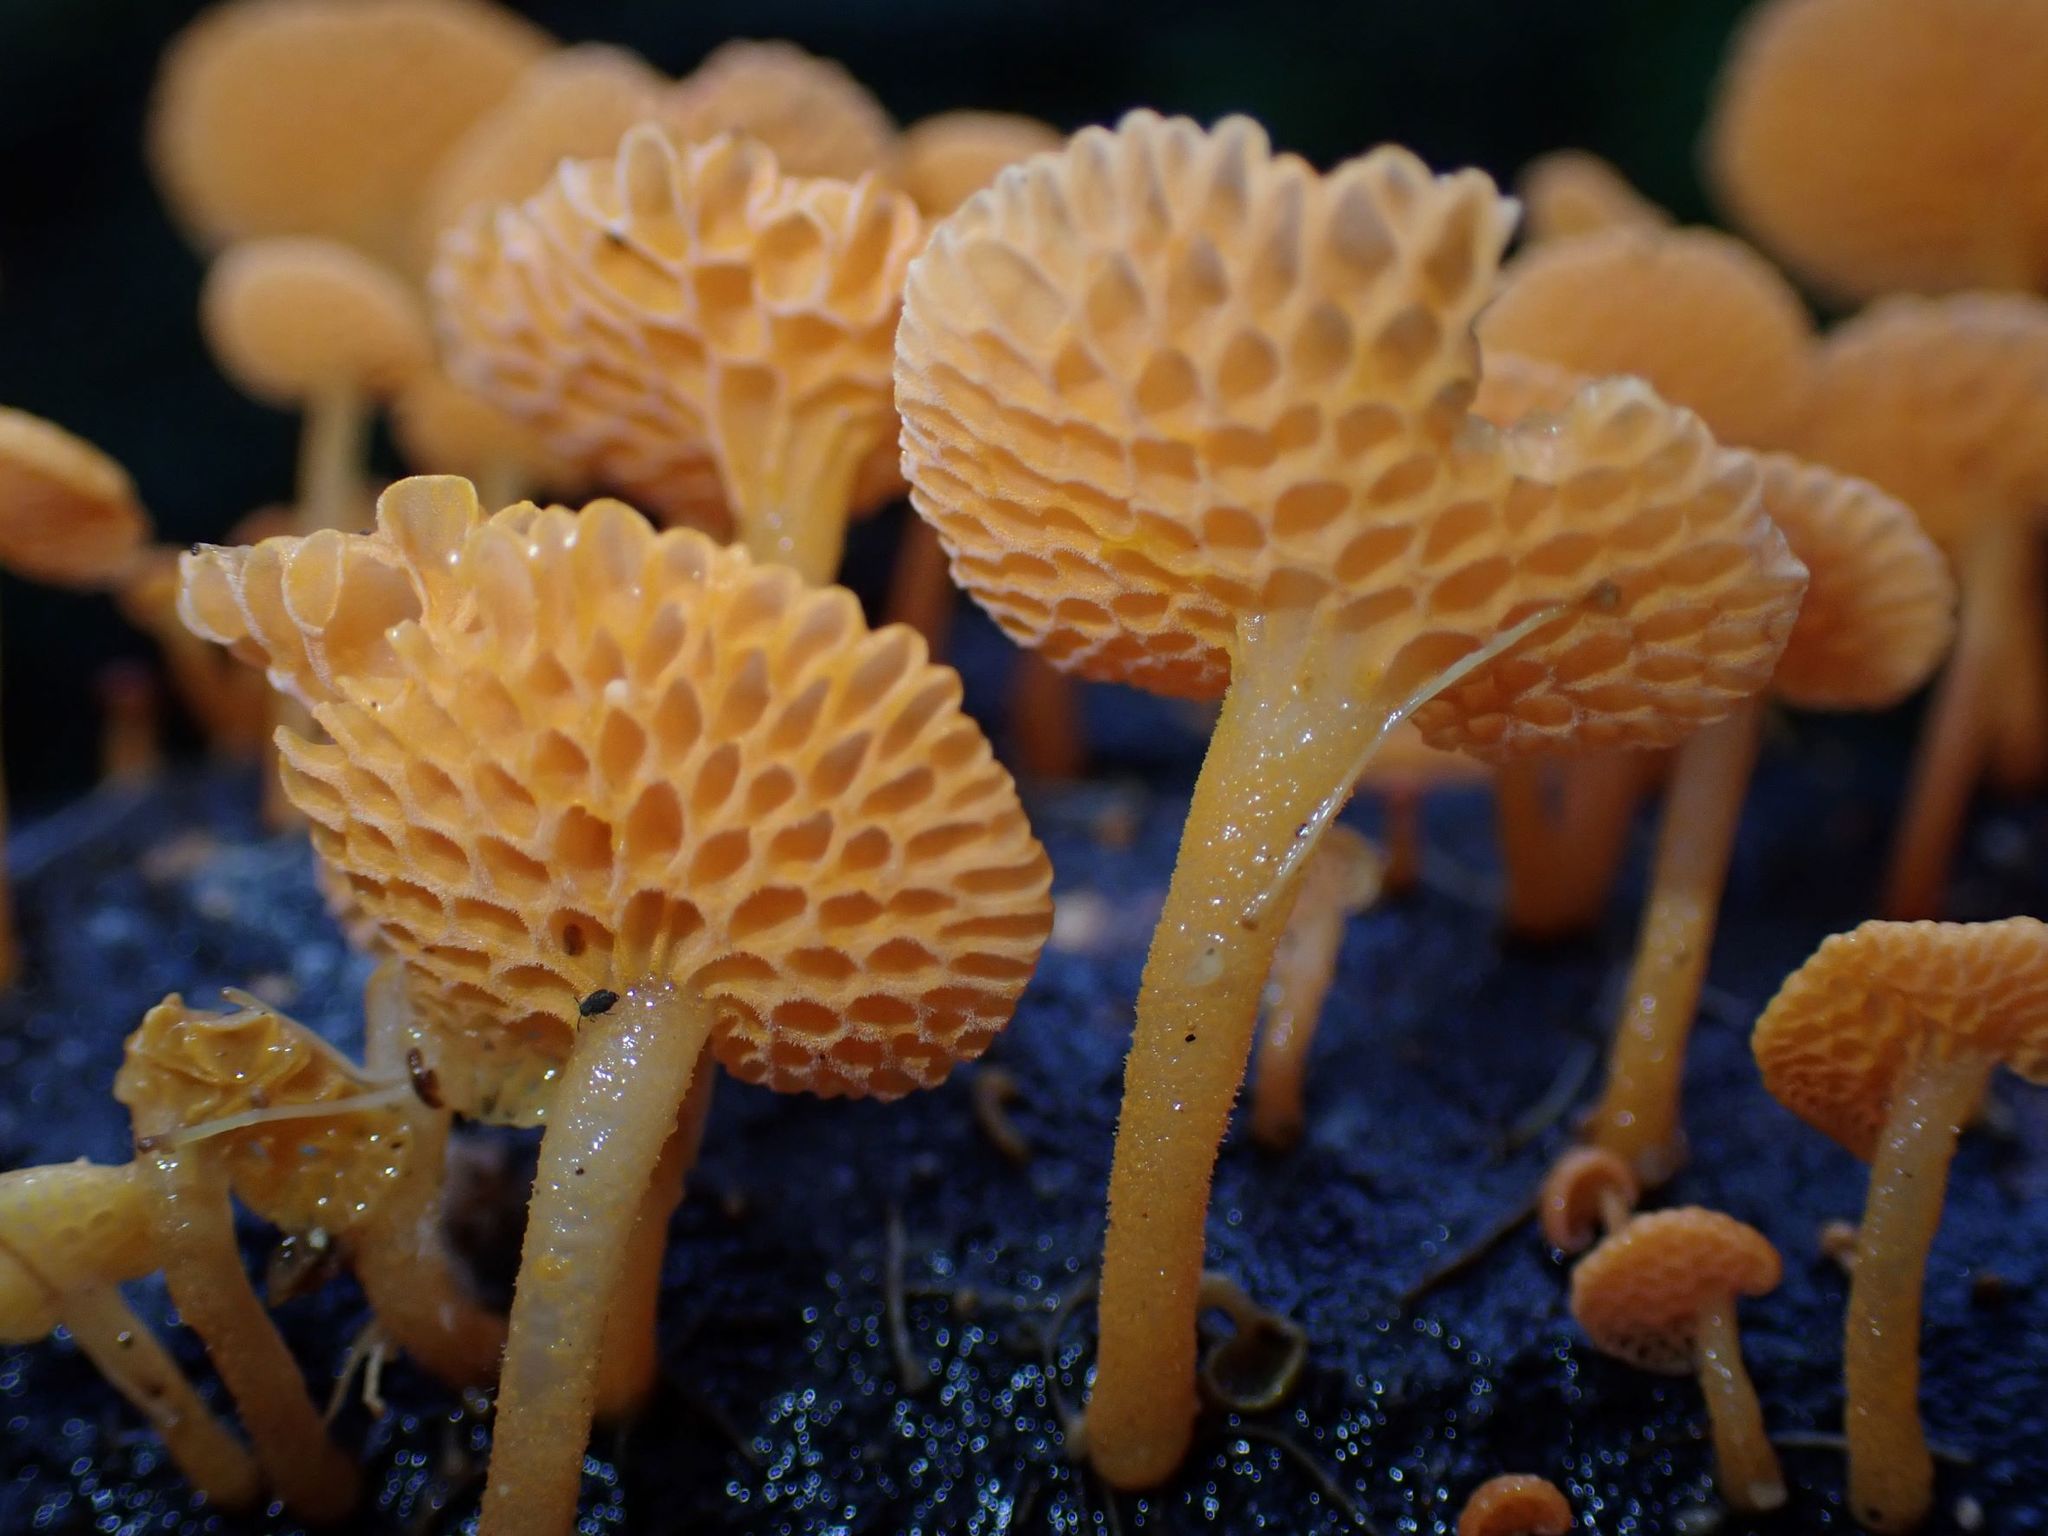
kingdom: Fungi
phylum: Basidiomycota
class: Agaricomycetes
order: Agaricales
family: Mycenaceae
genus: Favolaschia
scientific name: Favolaschia claudopus
